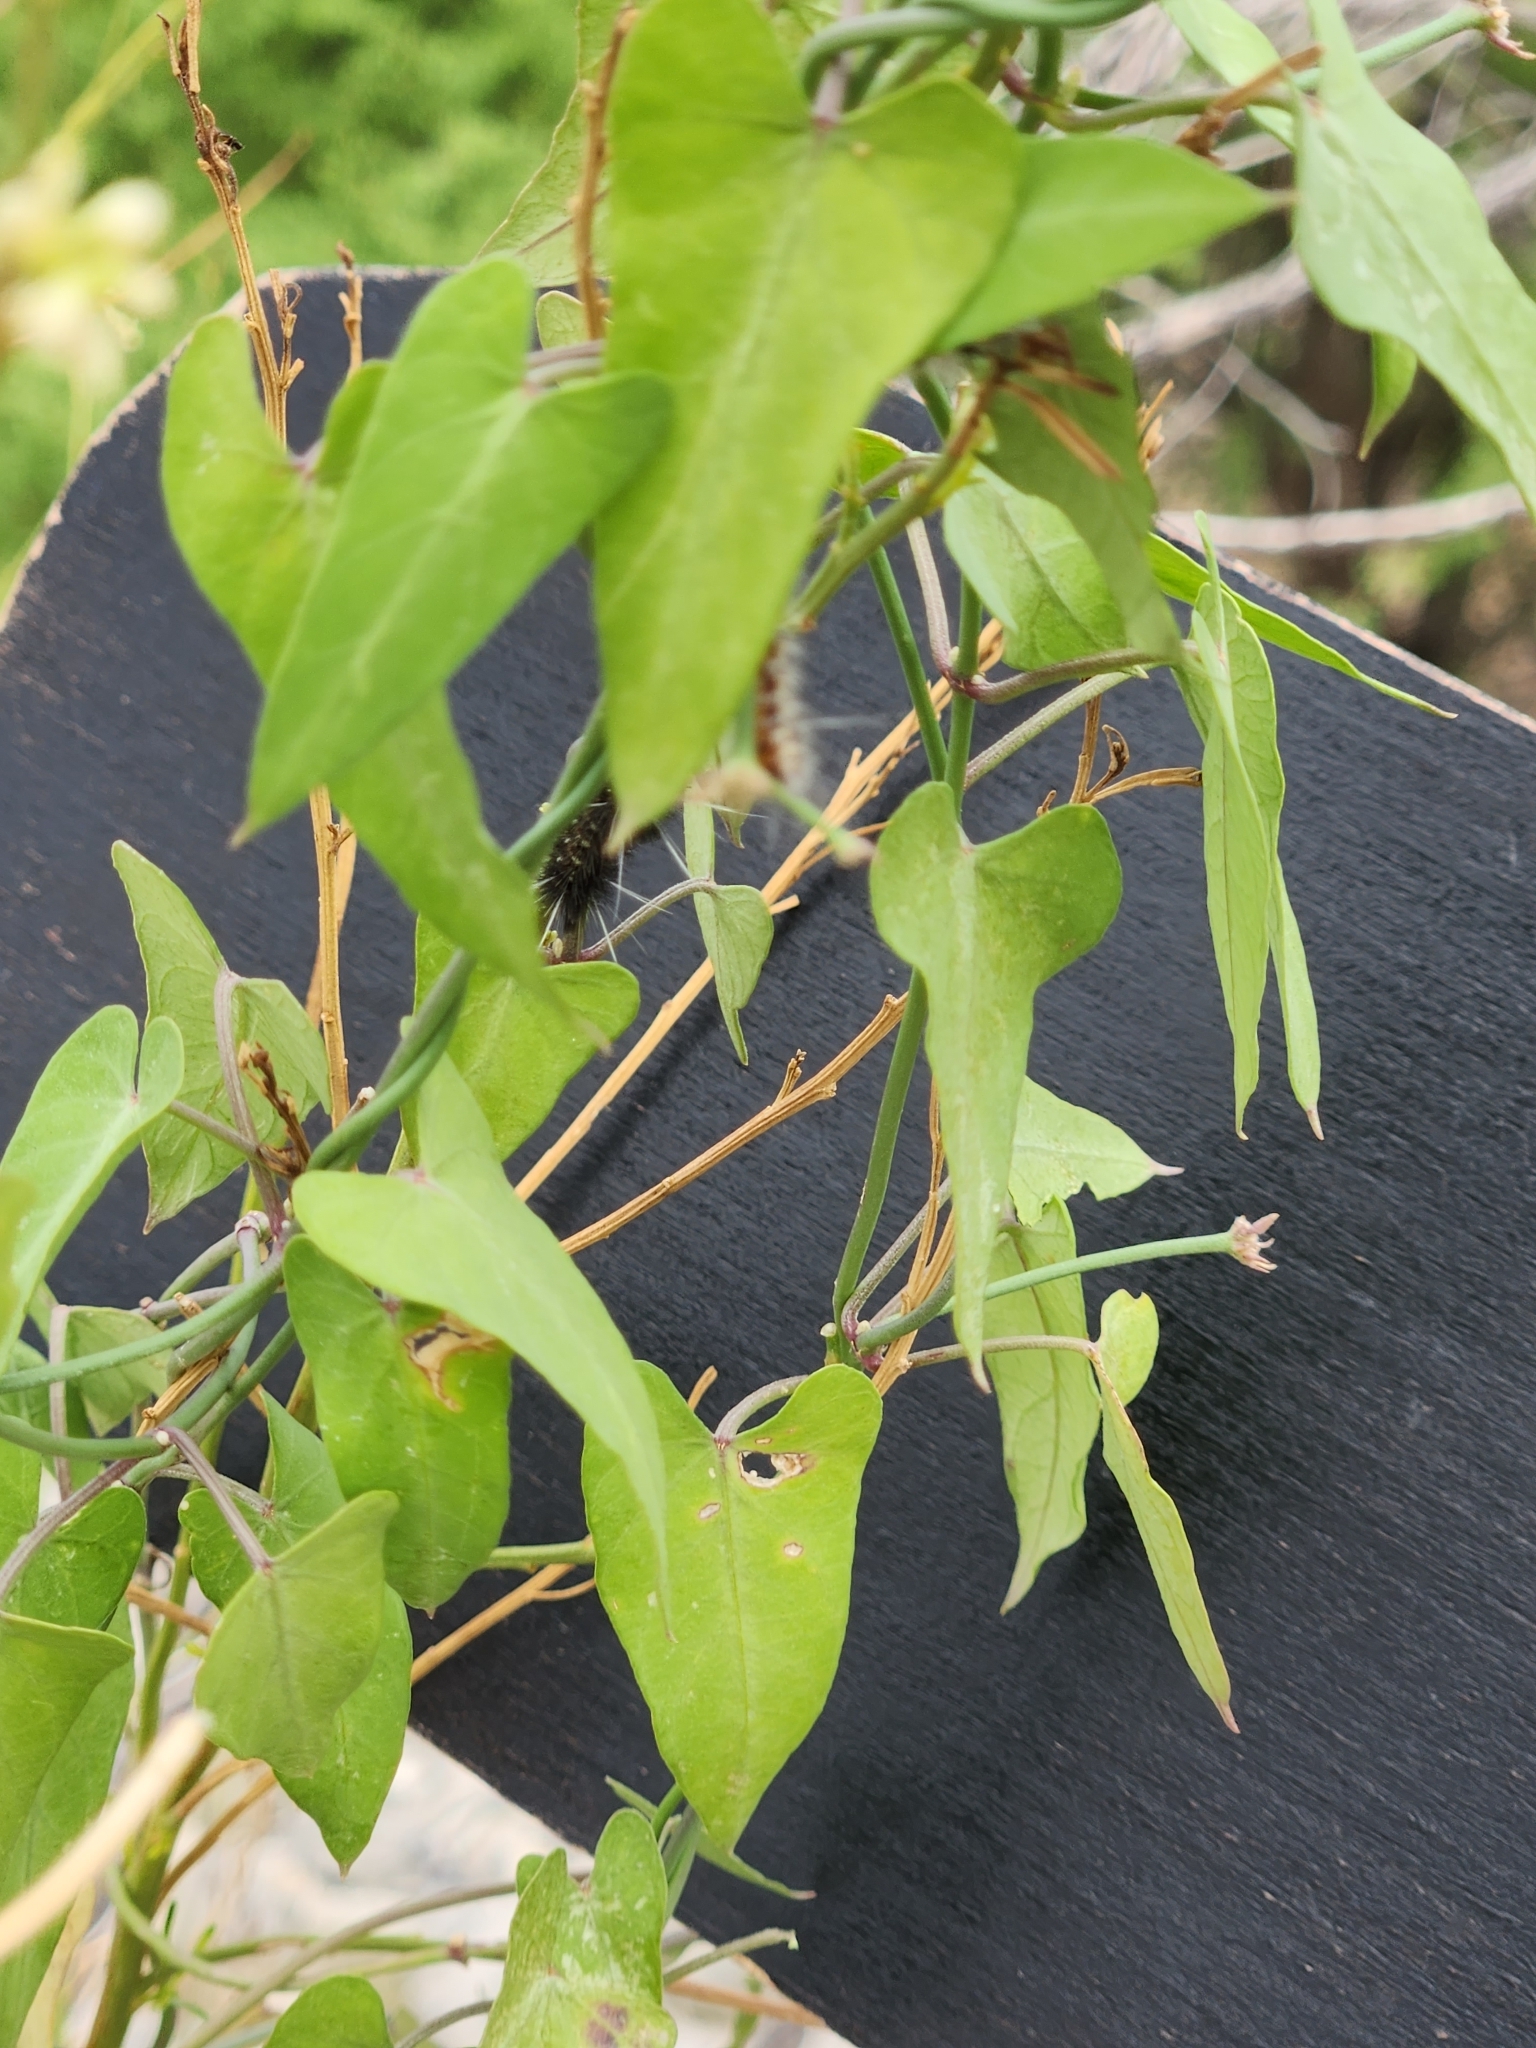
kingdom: Plantae
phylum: Tracheophyta
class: Magnoliopsida
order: Gentianales
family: Apocynaceae
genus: Funastrum
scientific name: Funastrum cynanchoides
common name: Climbing-milkweed
